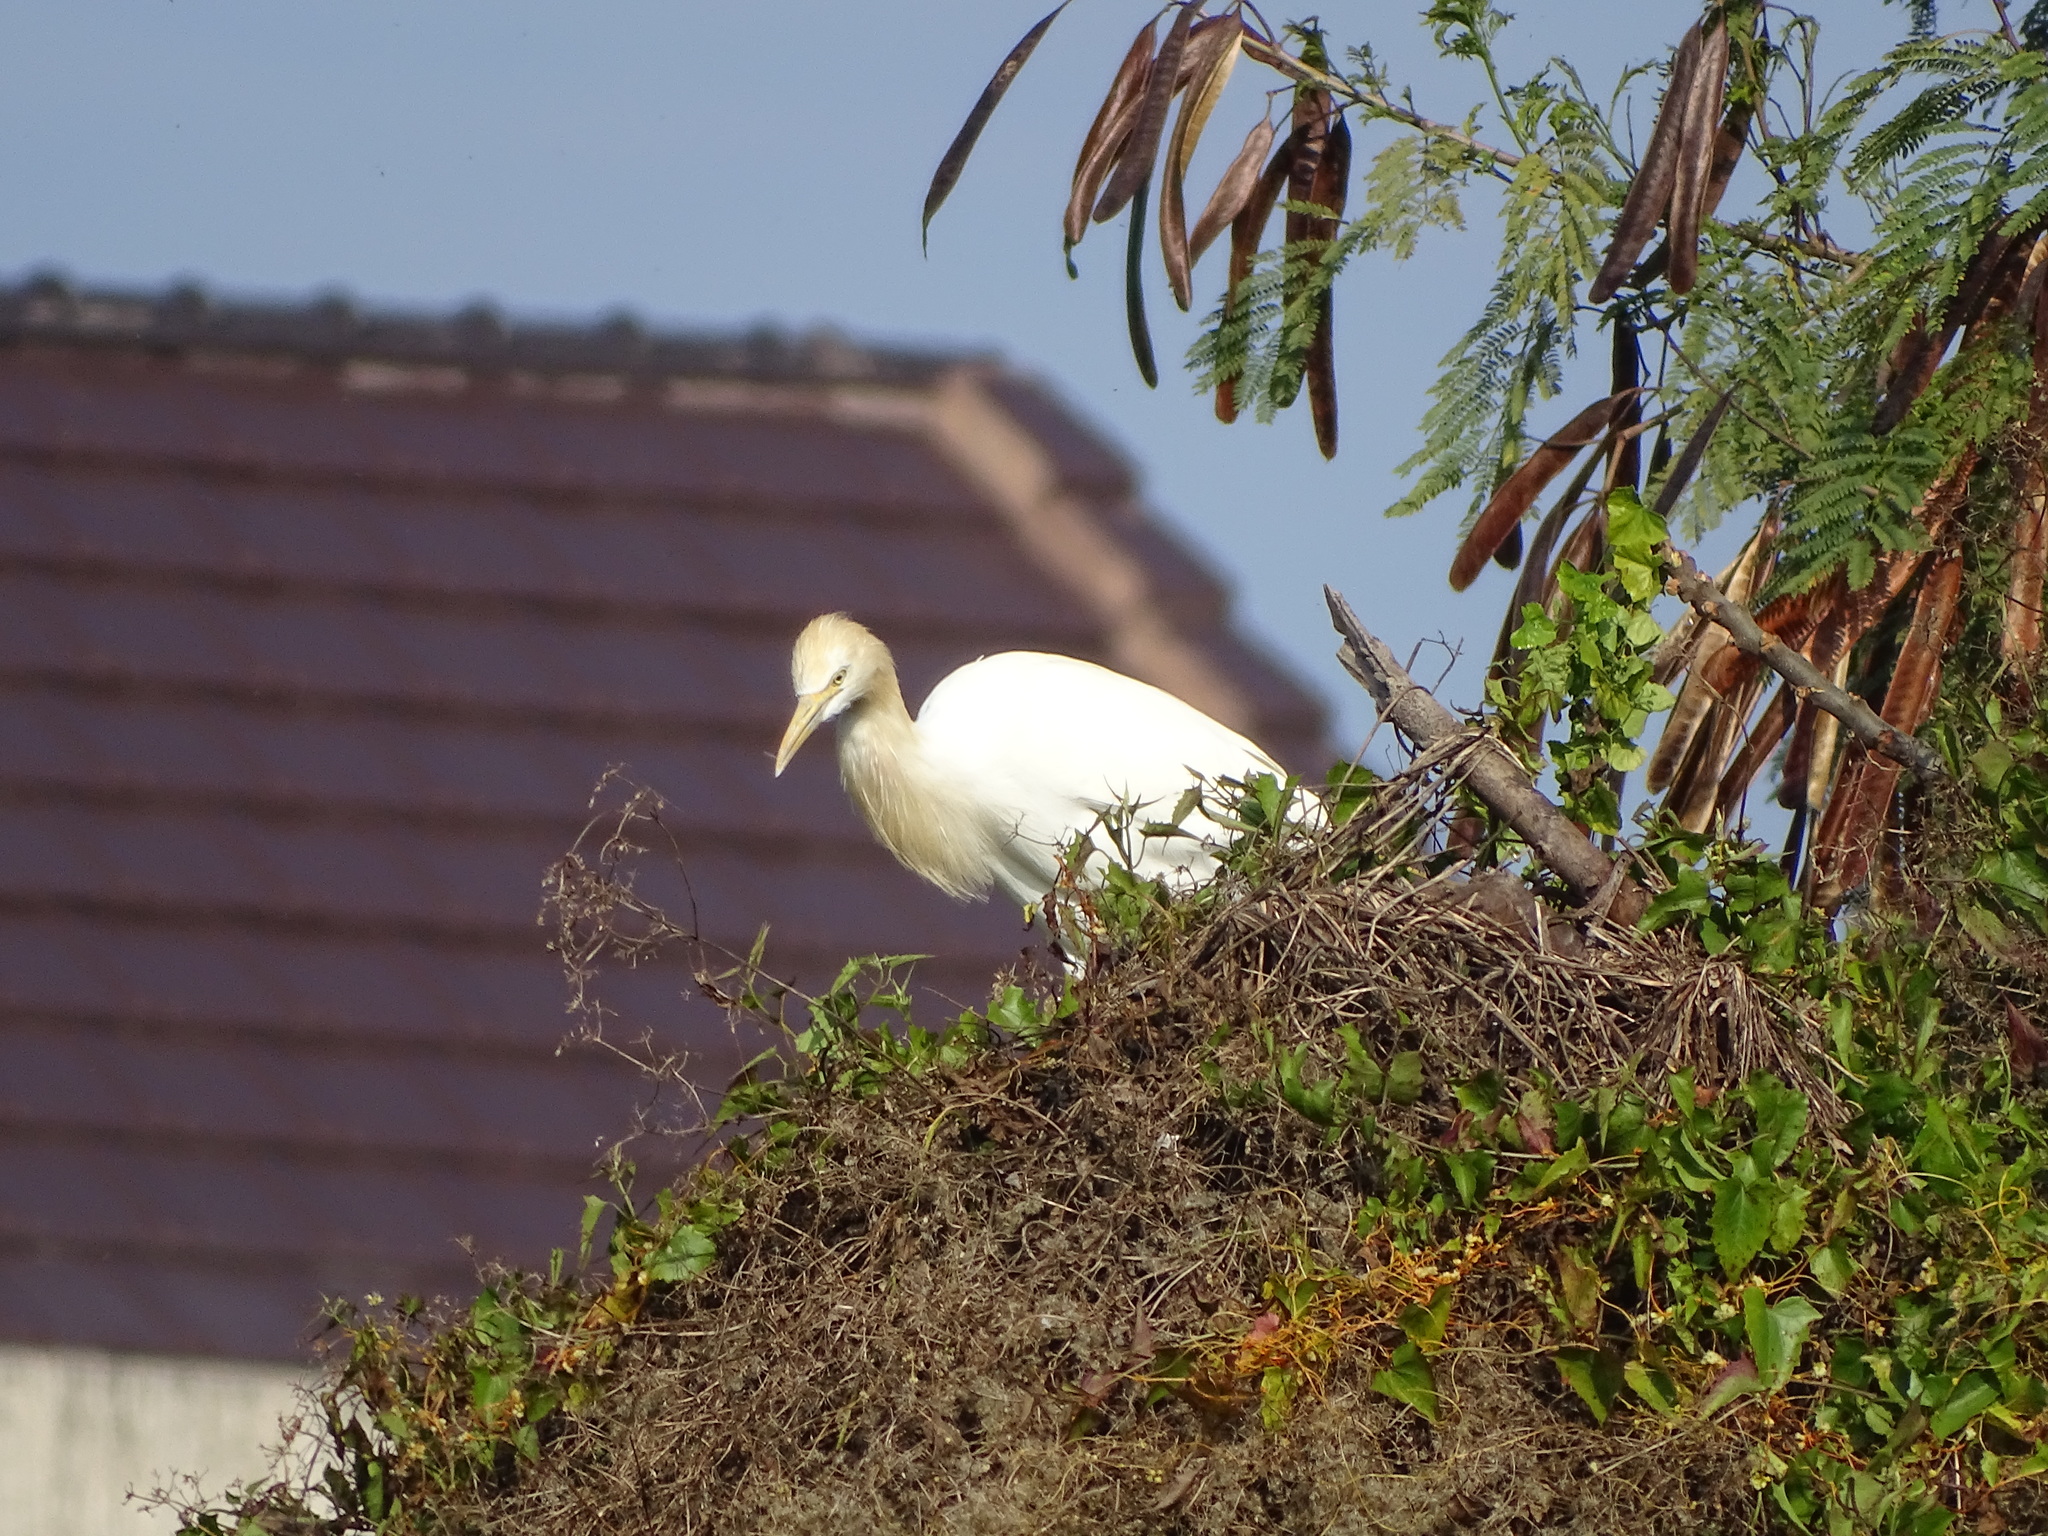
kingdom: Animalia
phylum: Chordata
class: Aves
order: Pelecaniformes
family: Ardeidae
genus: Bubulcus
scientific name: Bubulcus coromandus
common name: Eastern cattle egret
